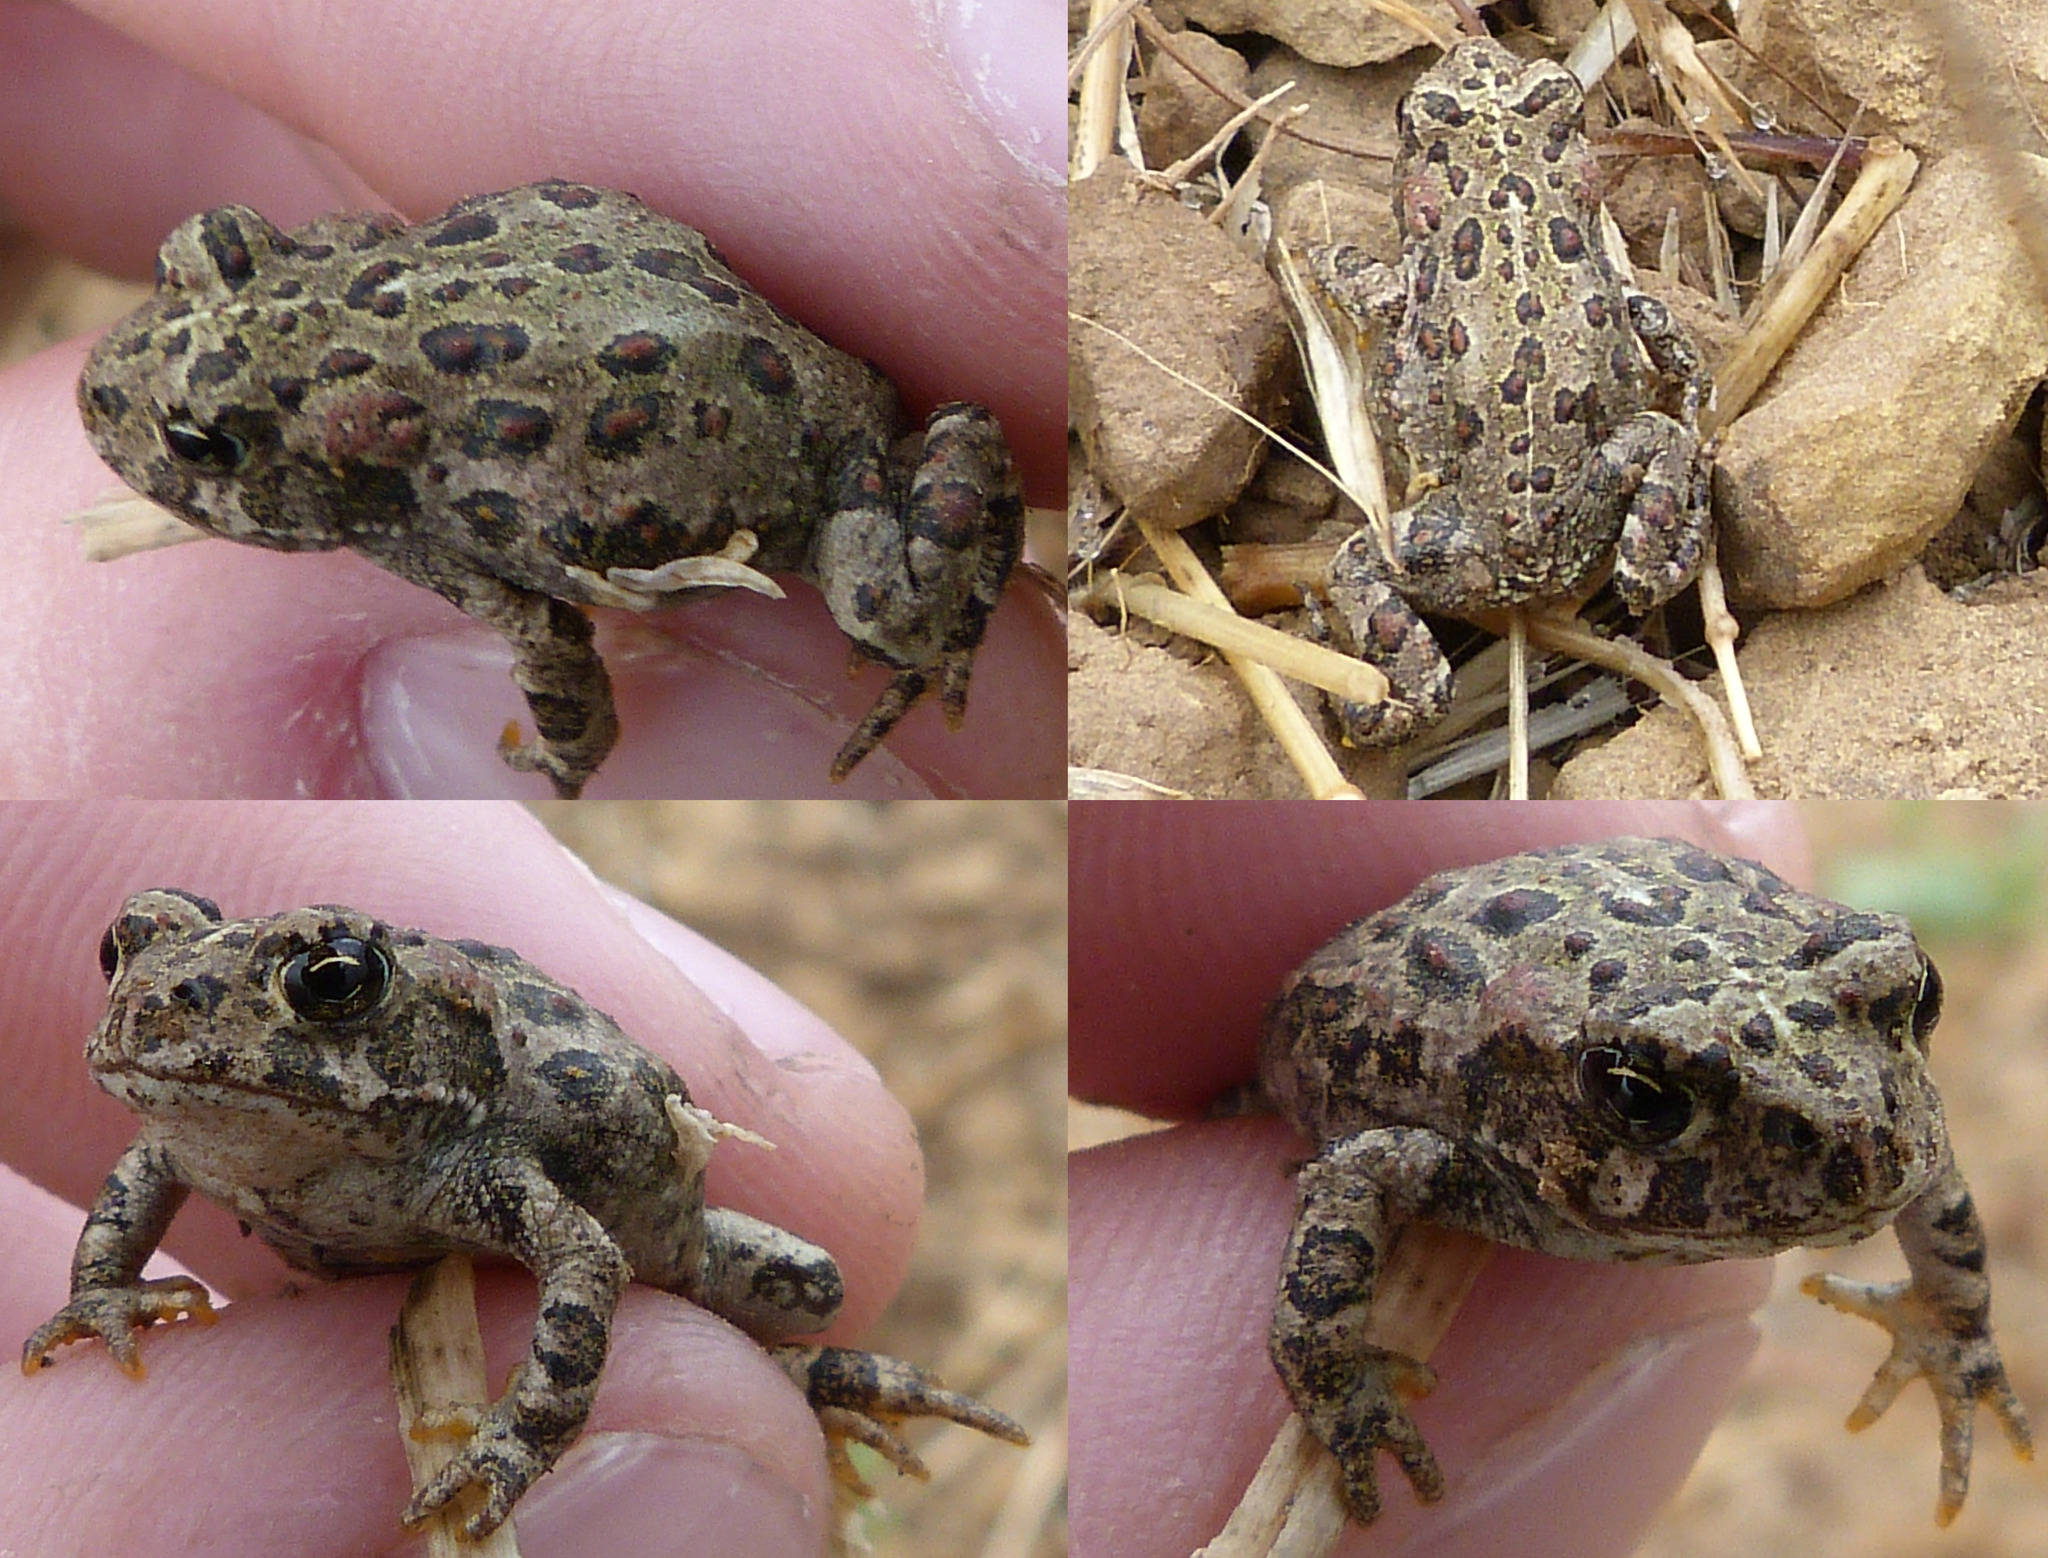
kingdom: Animalia
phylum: Chordata
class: Amphibia
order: Anura
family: Bufonidae
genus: Anaxyrus
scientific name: Anaxyrus boreas
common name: Western toad
